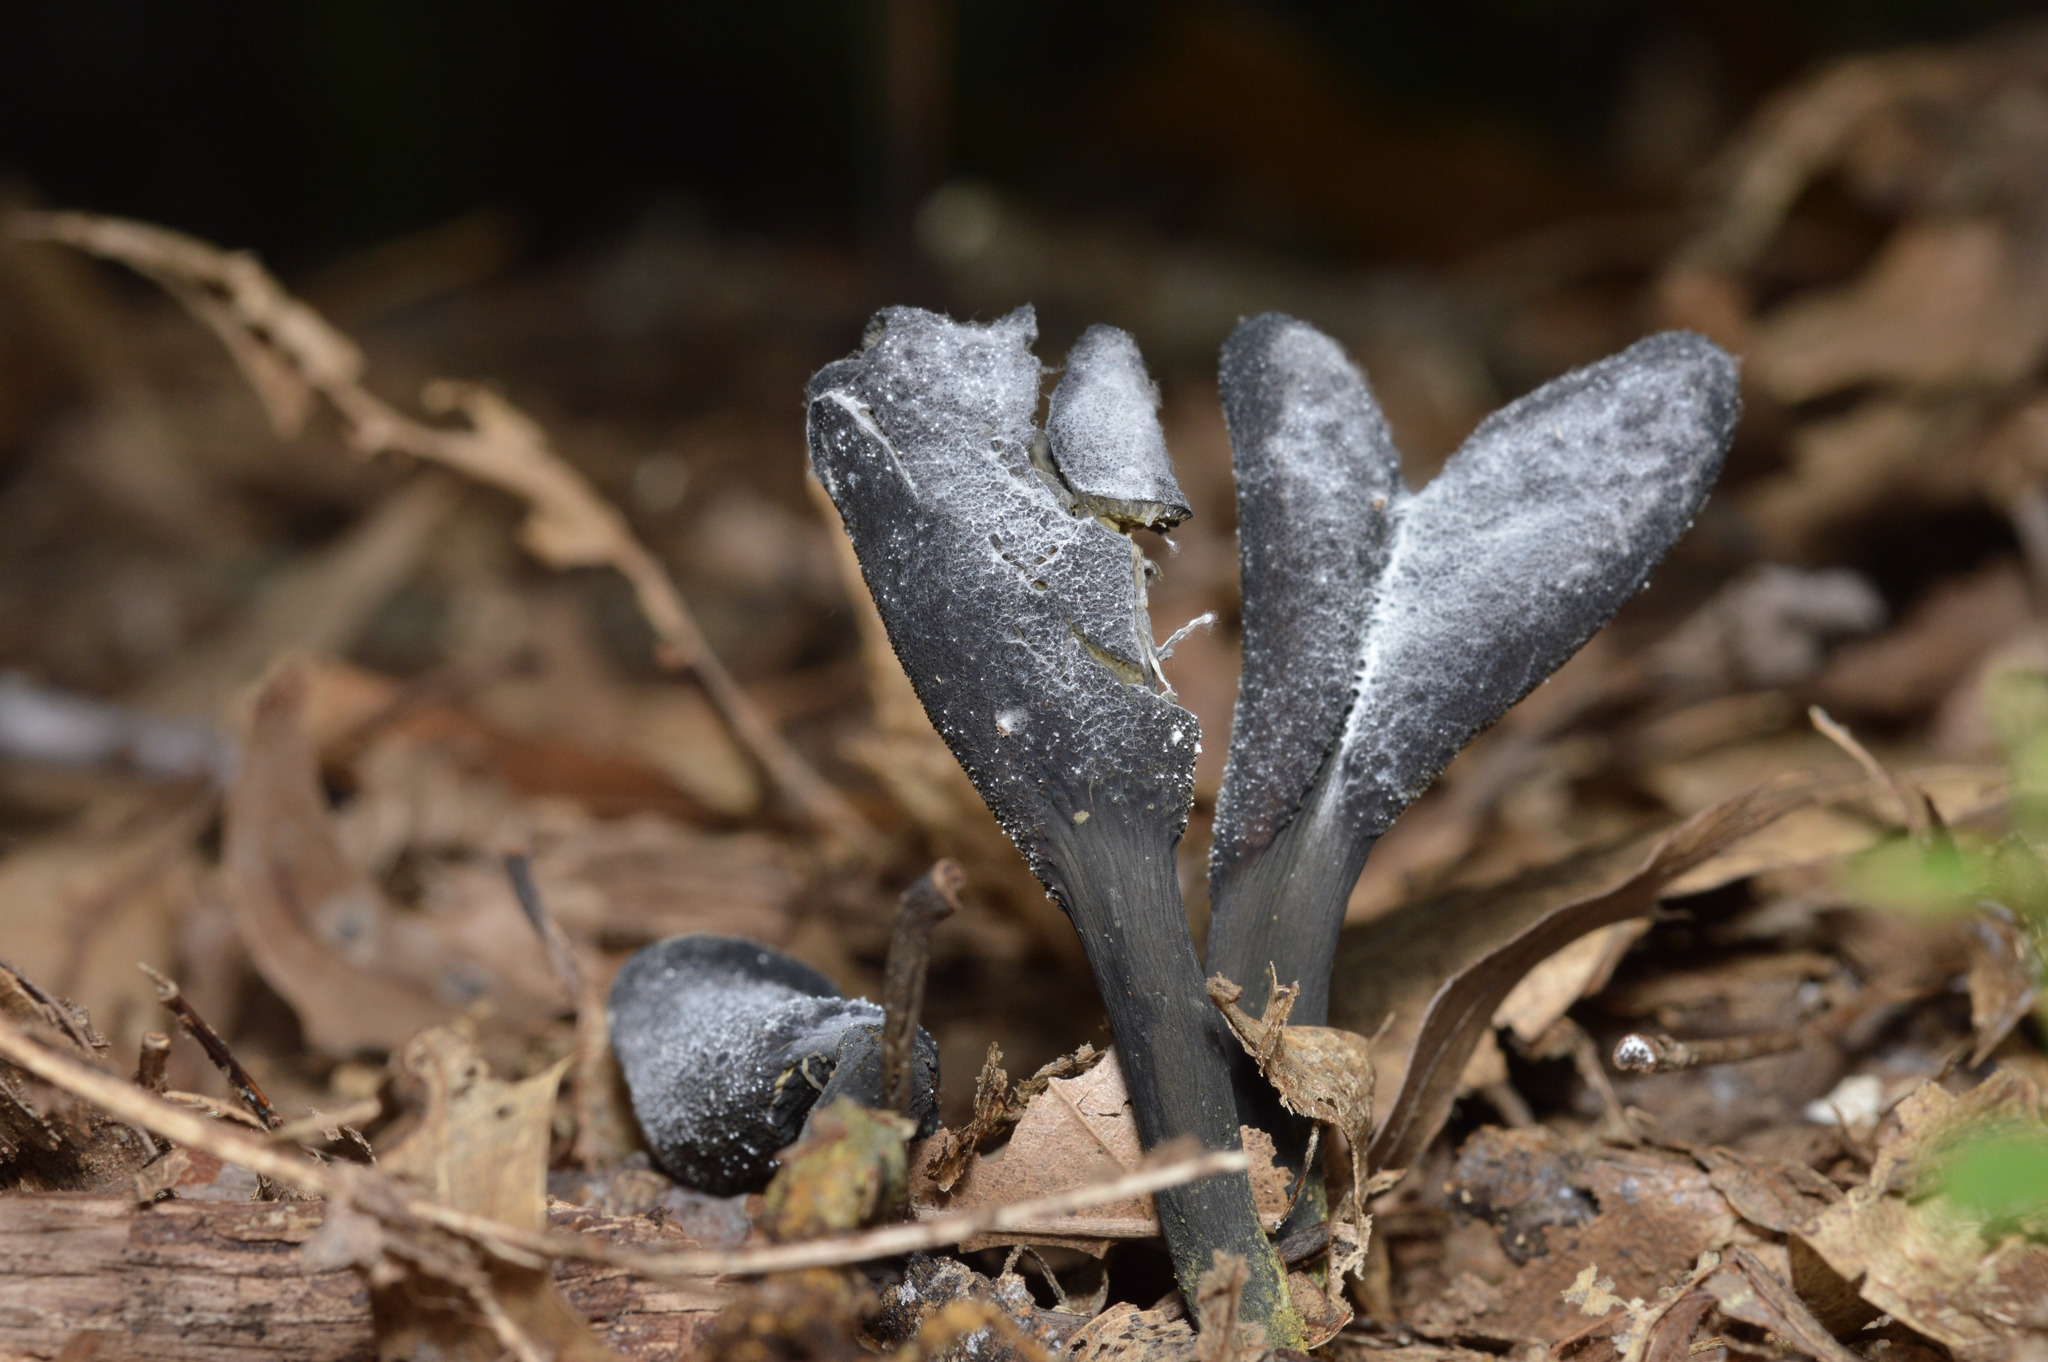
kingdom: Fungi
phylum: Ascomycota
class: Sordariomycetes
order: Hypocreales
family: Ophiocordycipitaceae
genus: Tolypocladium
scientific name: Tolypocladium ophioglossoides
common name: Snaketongue truffleclub
